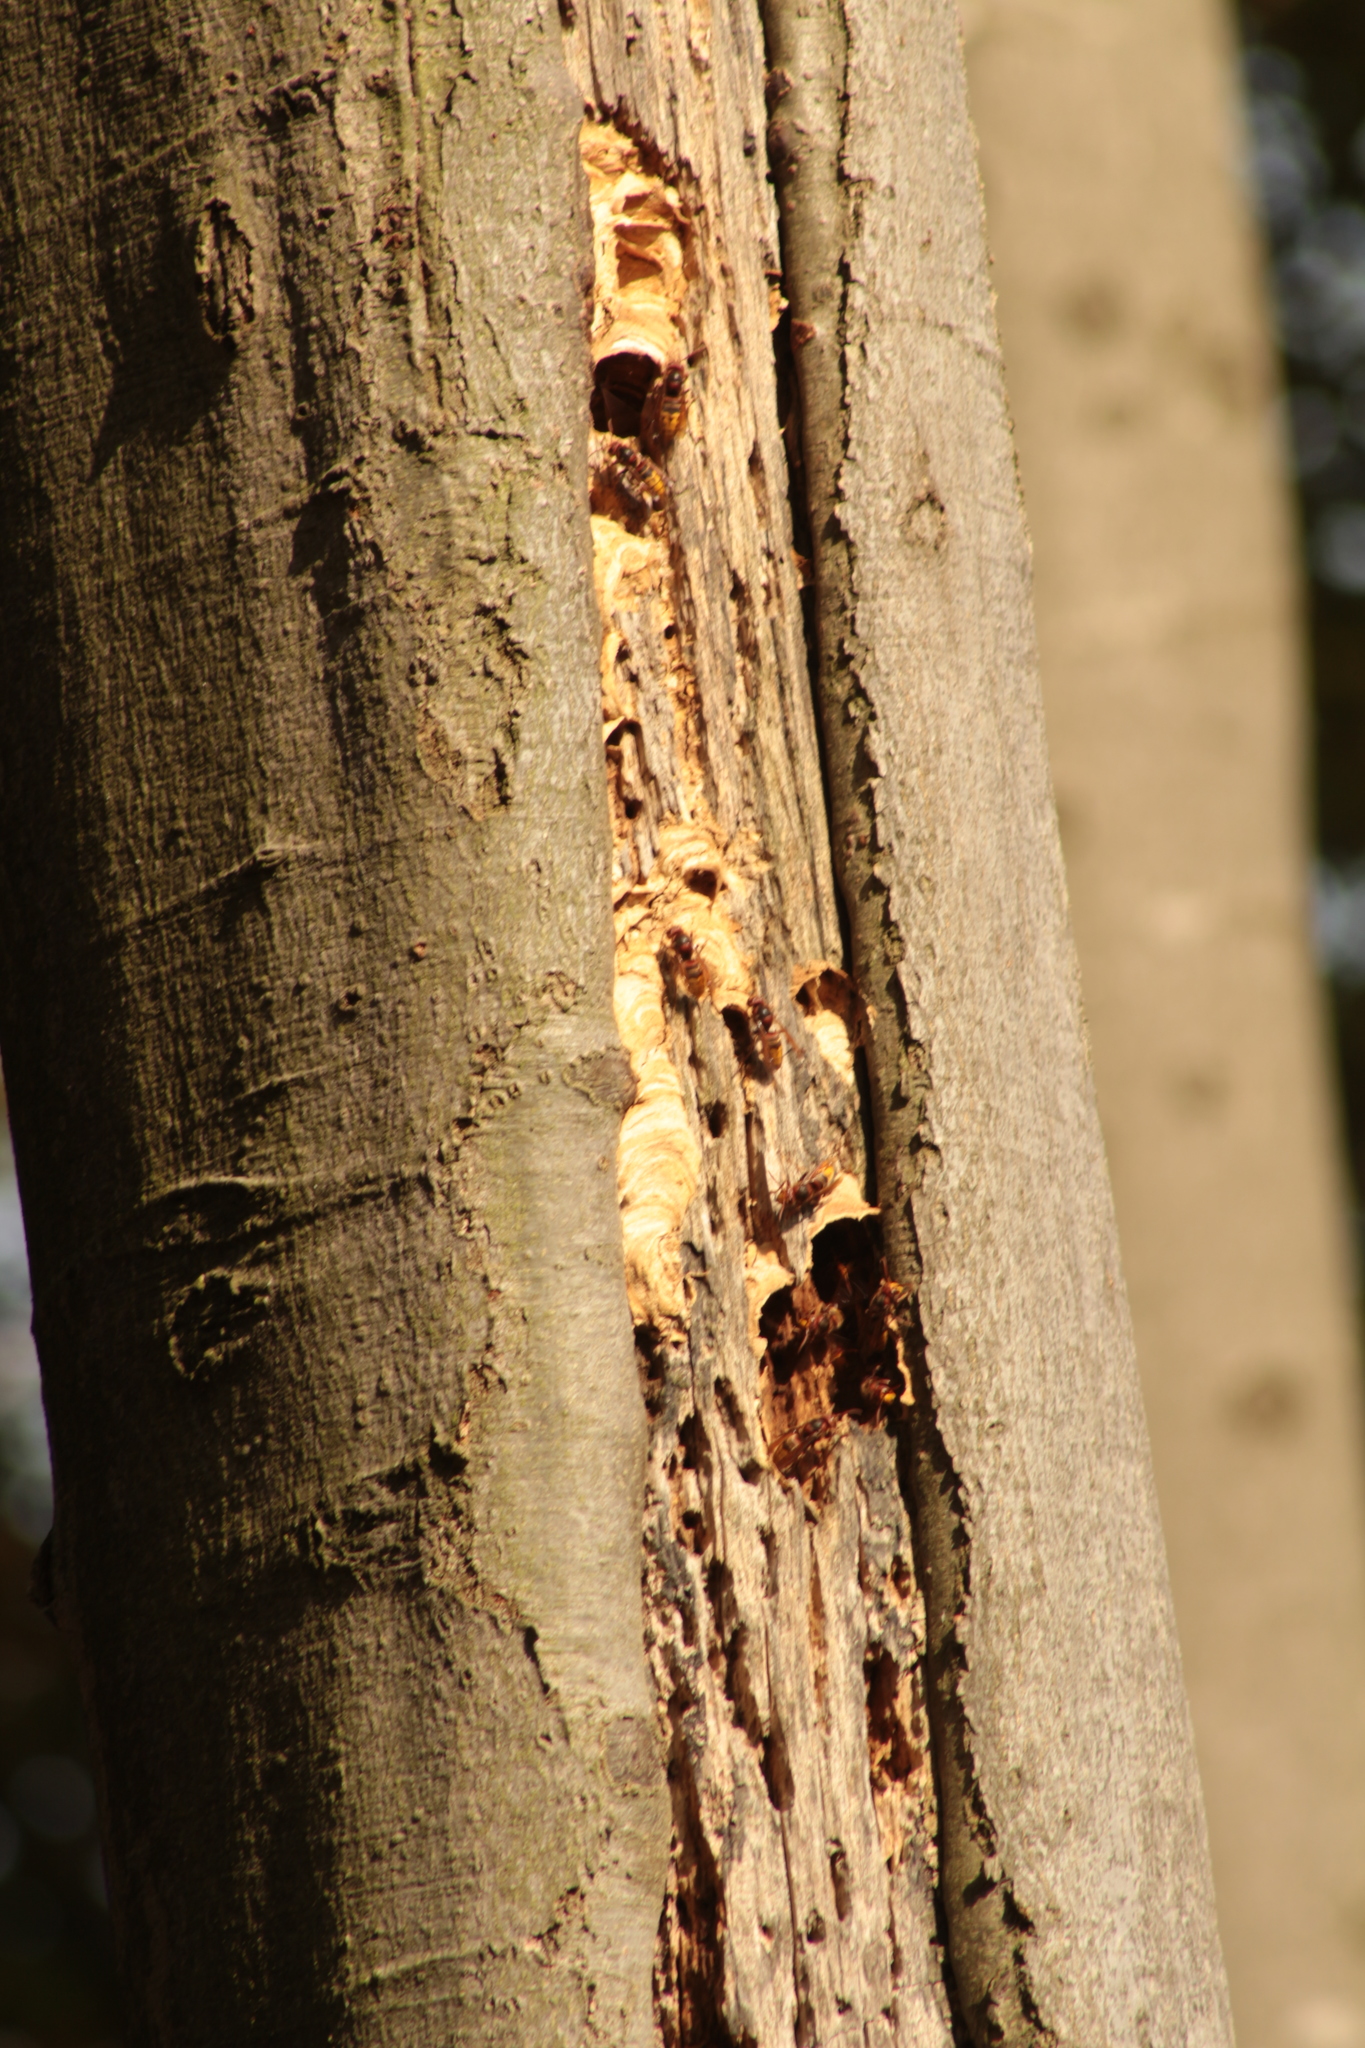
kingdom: Animalia
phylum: Arthropoda
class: Insecta
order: Hymenoptera
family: Vespidae
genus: Vespa
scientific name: Vespa crabro
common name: Hornet
